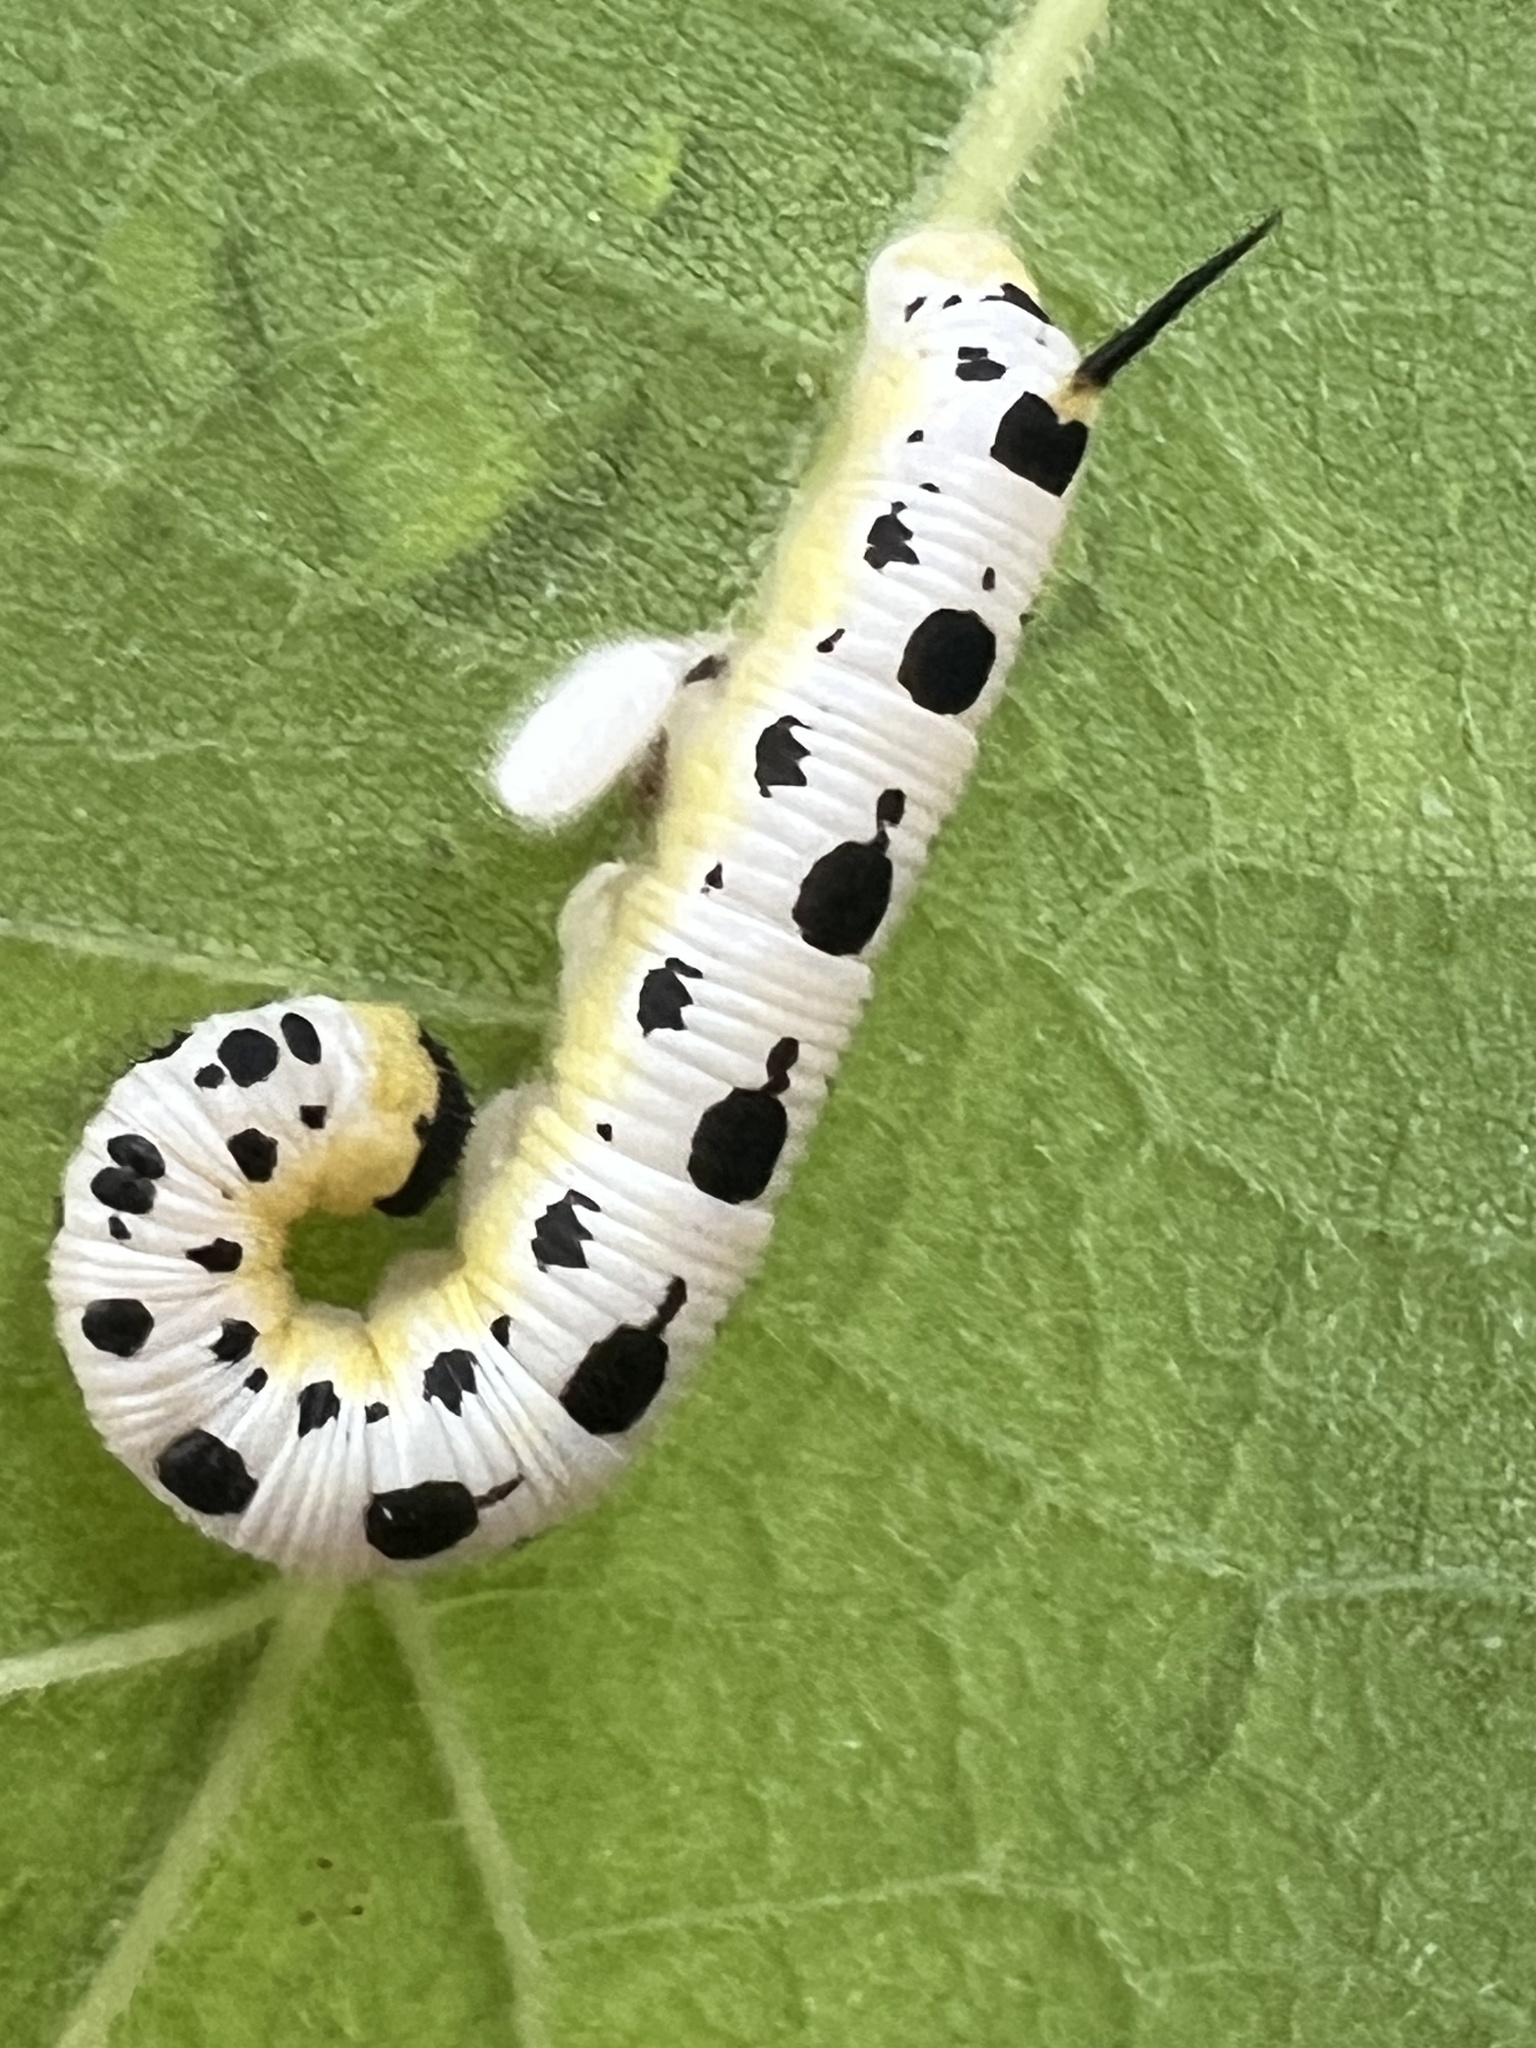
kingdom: Animalia
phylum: Arthropoda
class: Insecta
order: Lepidoptera
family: Sphingidae
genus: Ceratomia
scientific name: Ceratomia catalpae
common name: Catalpa hornworm
